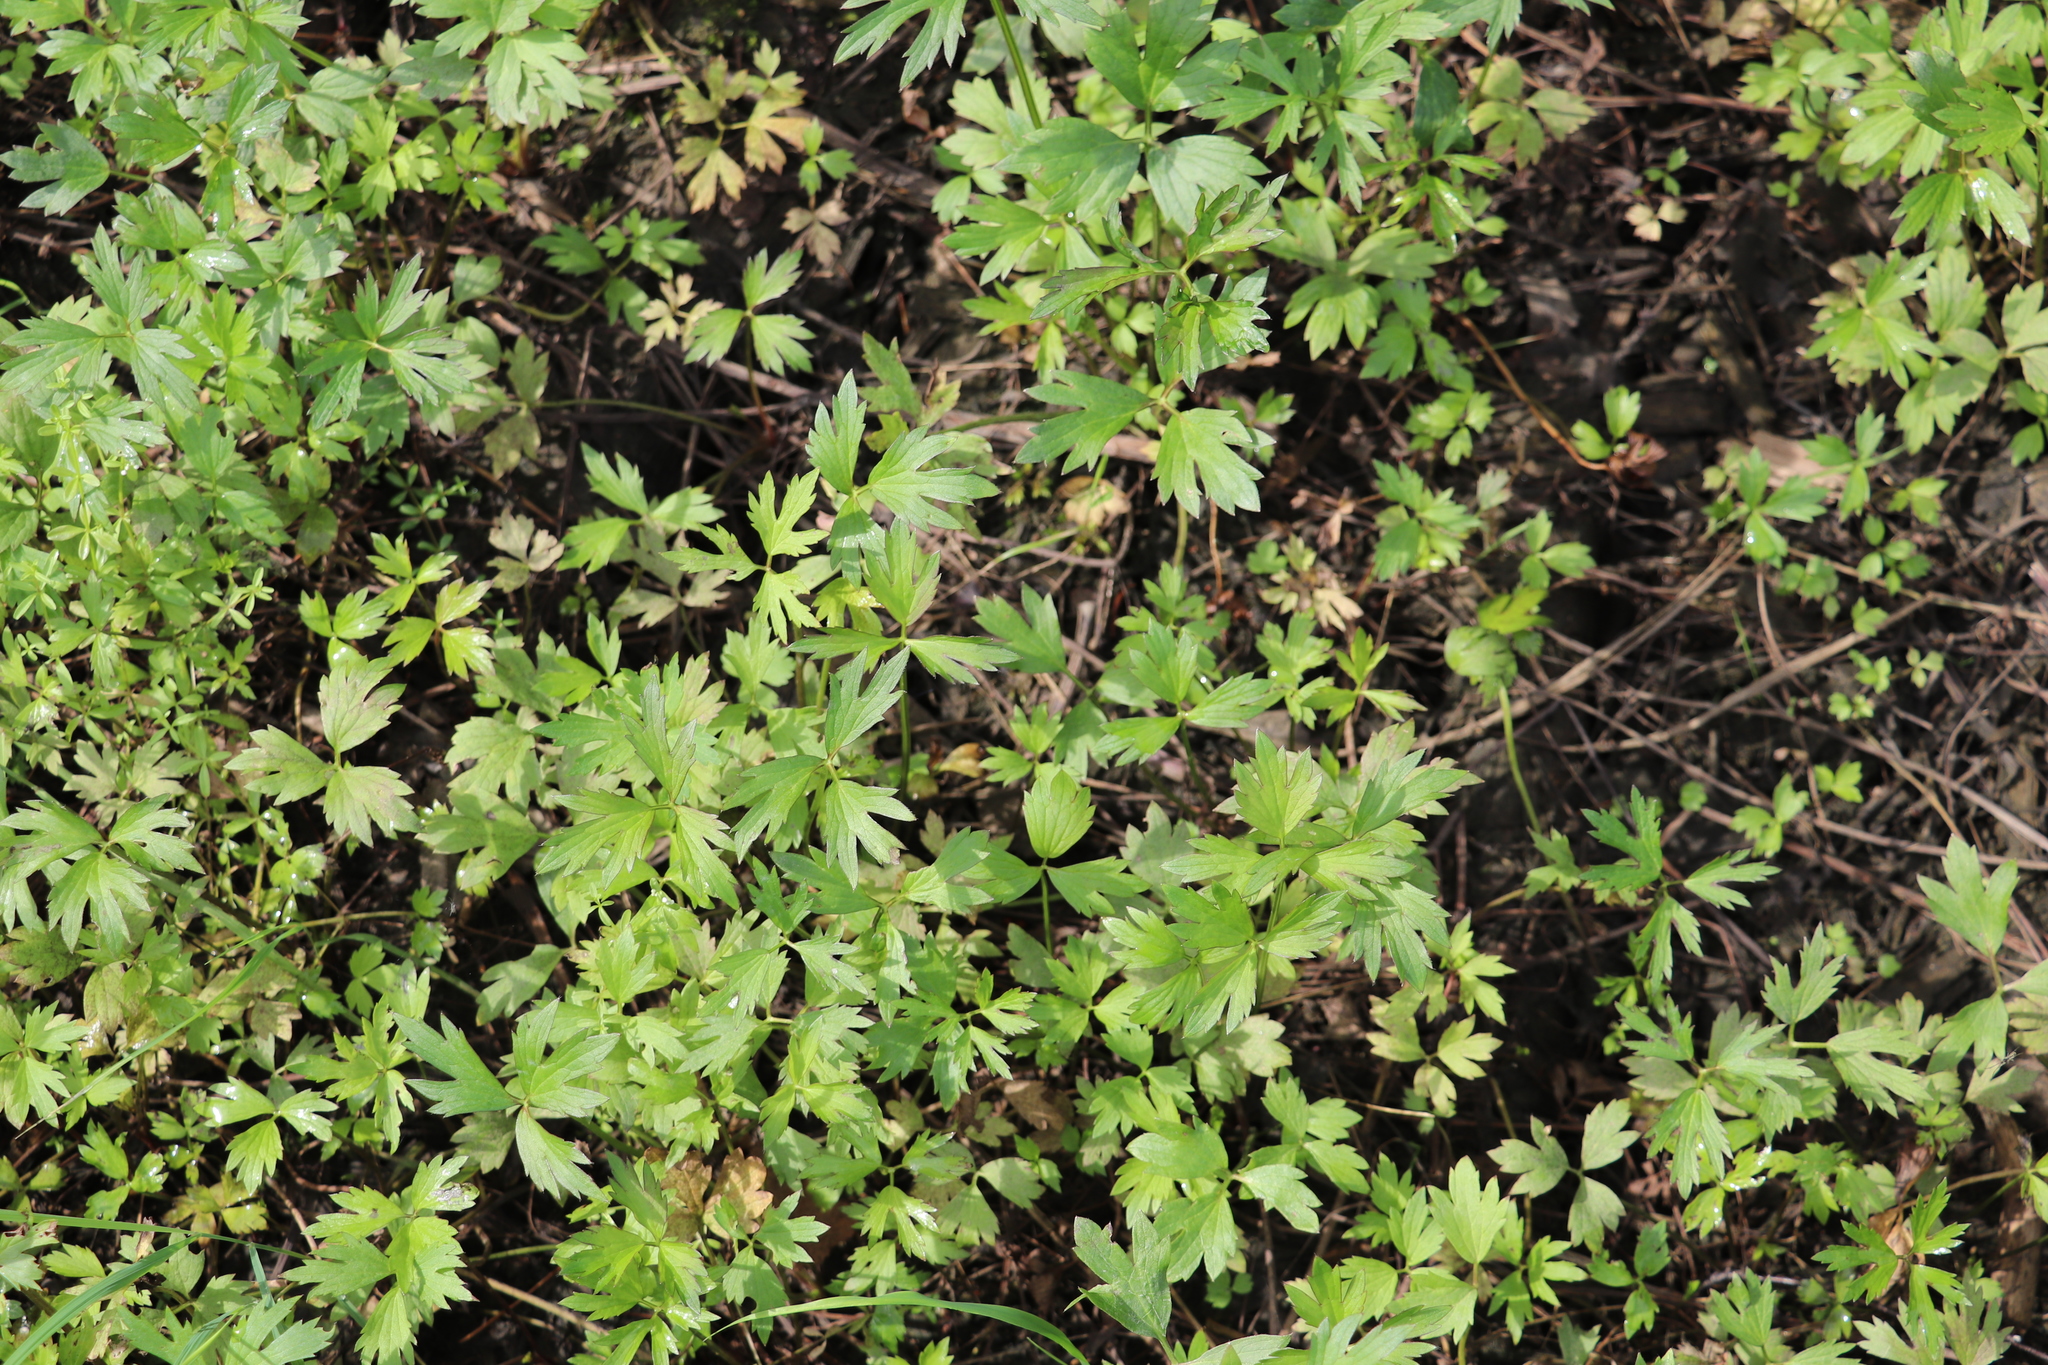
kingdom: Plantae
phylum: Tracheophyta
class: Magnoliopsida
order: Ranunculales
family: Ranunculaceae
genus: Ranunculus
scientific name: Ranunculus repens
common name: Creeping buttercup
